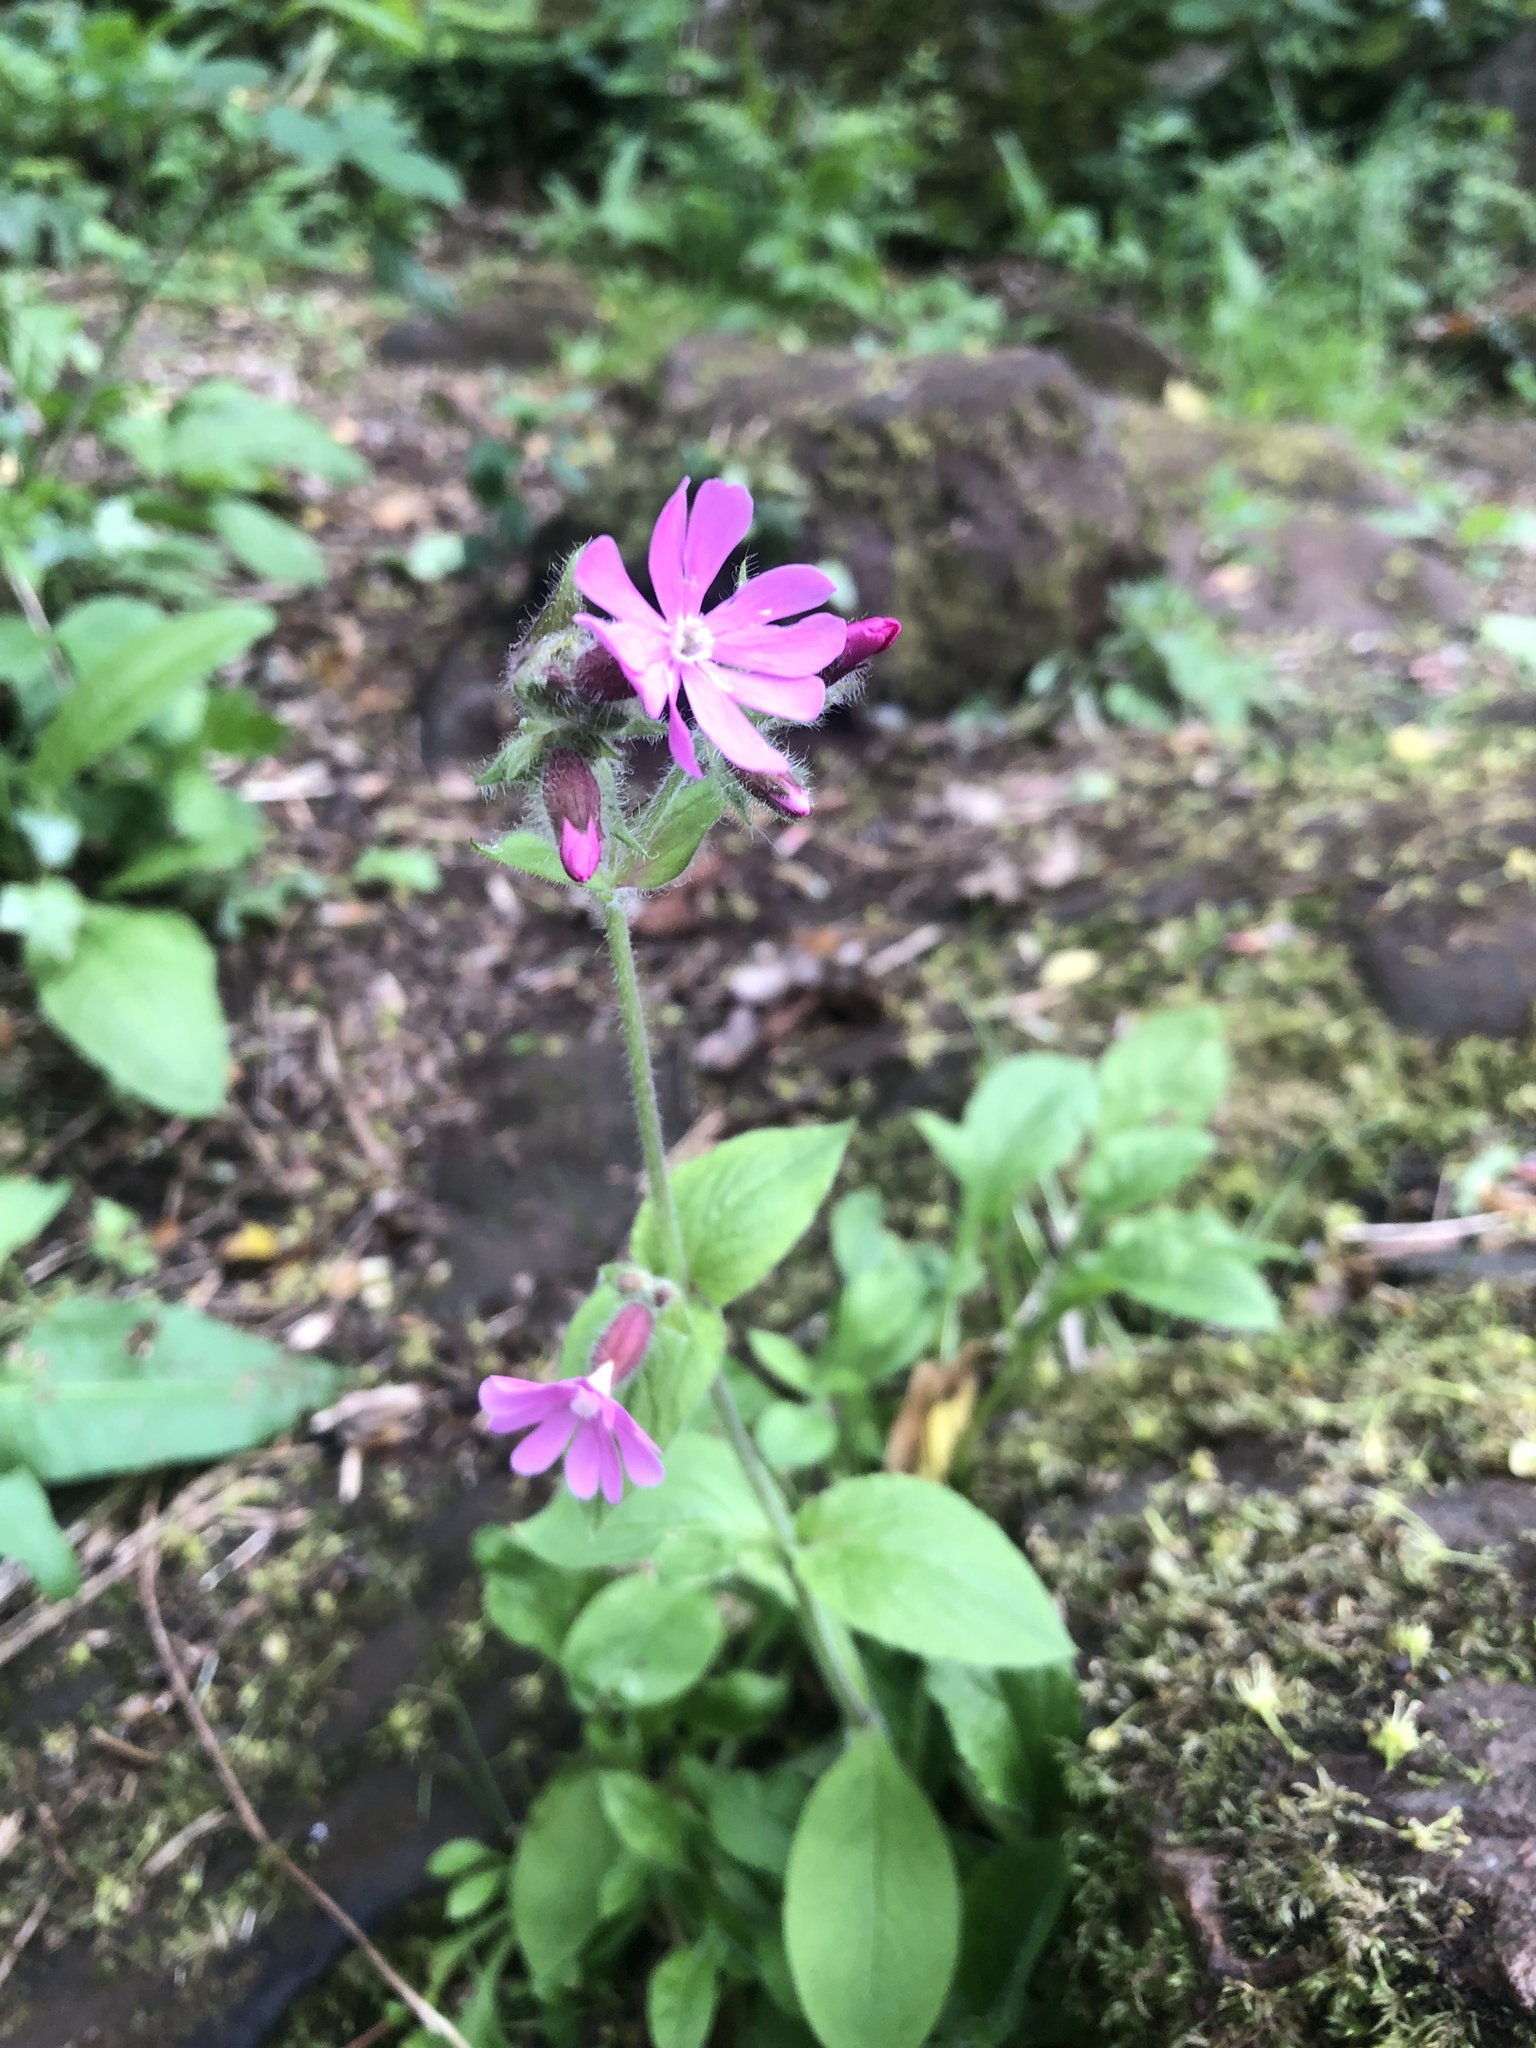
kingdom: Plantae
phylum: Tracheophyta
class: Magnoliopsida
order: Caryophyllales
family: Caryophyllaceae
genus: Silene
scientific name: Silene dioica
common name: Red campion
